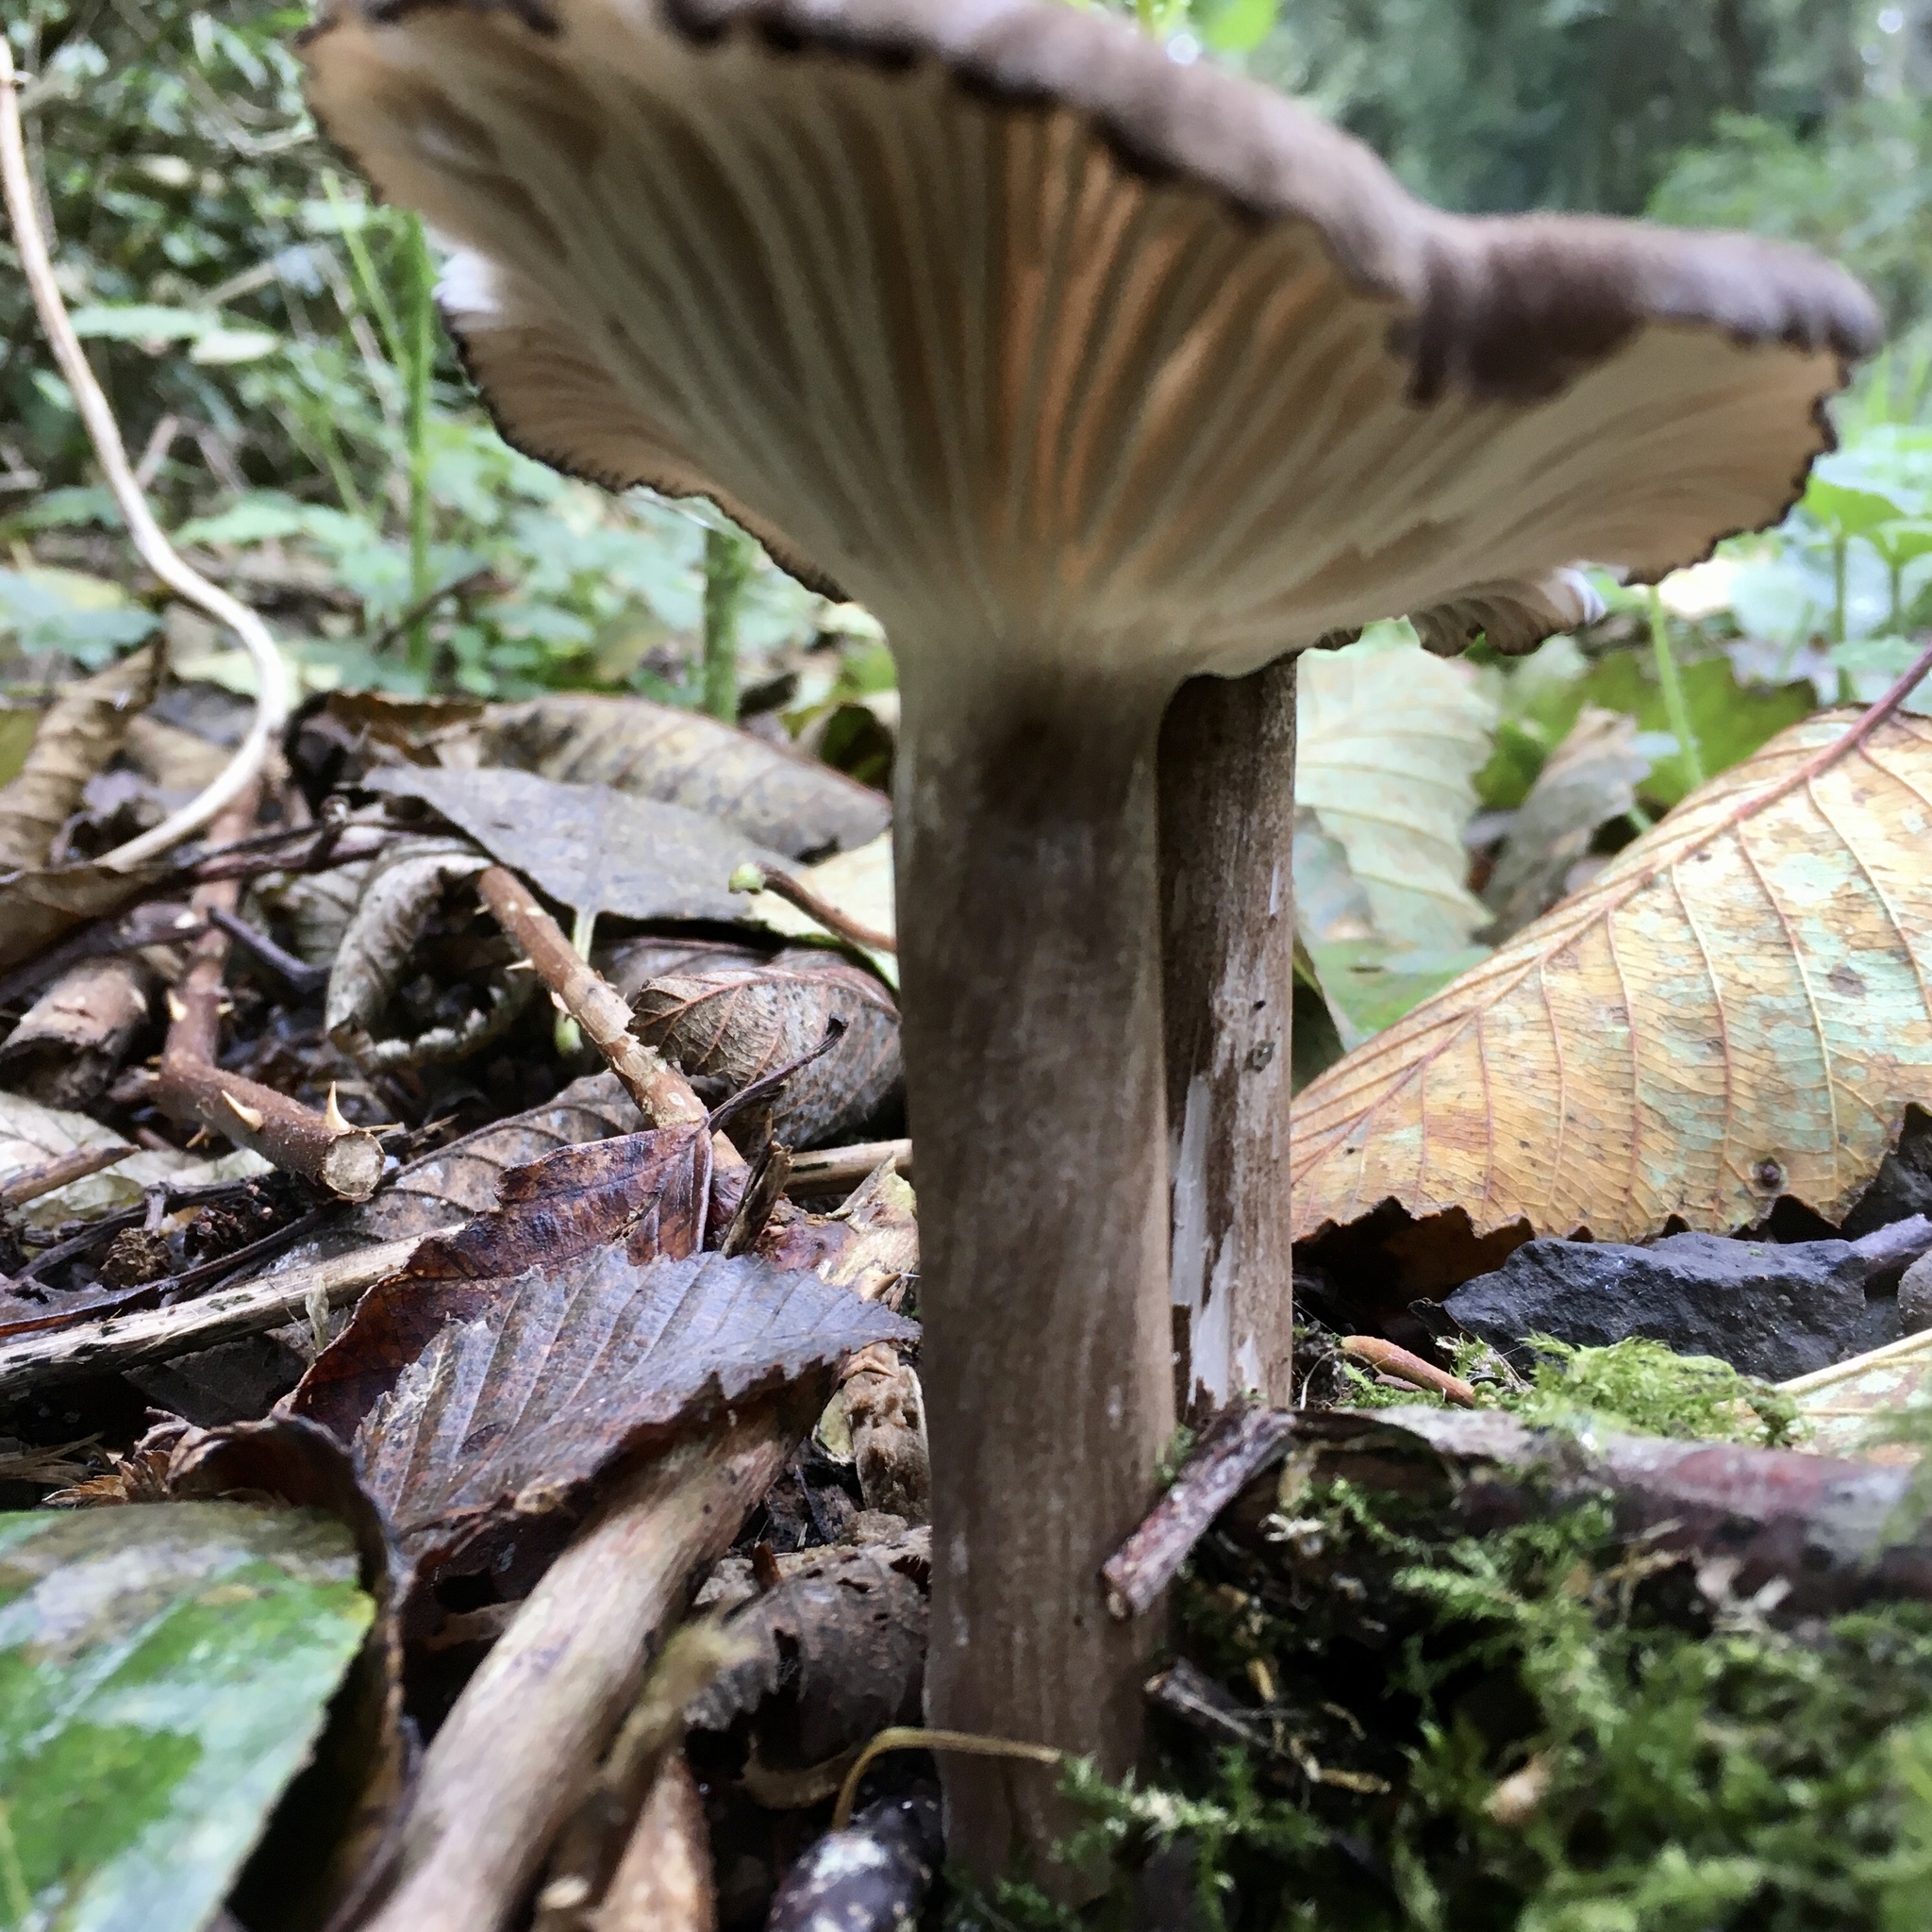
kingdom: Fungi
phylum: Basidiomycota
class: Agaricomycetes
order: Agaricales
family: Marasmiaceae
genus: Gerronema
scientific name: Gerronema atrialbum
